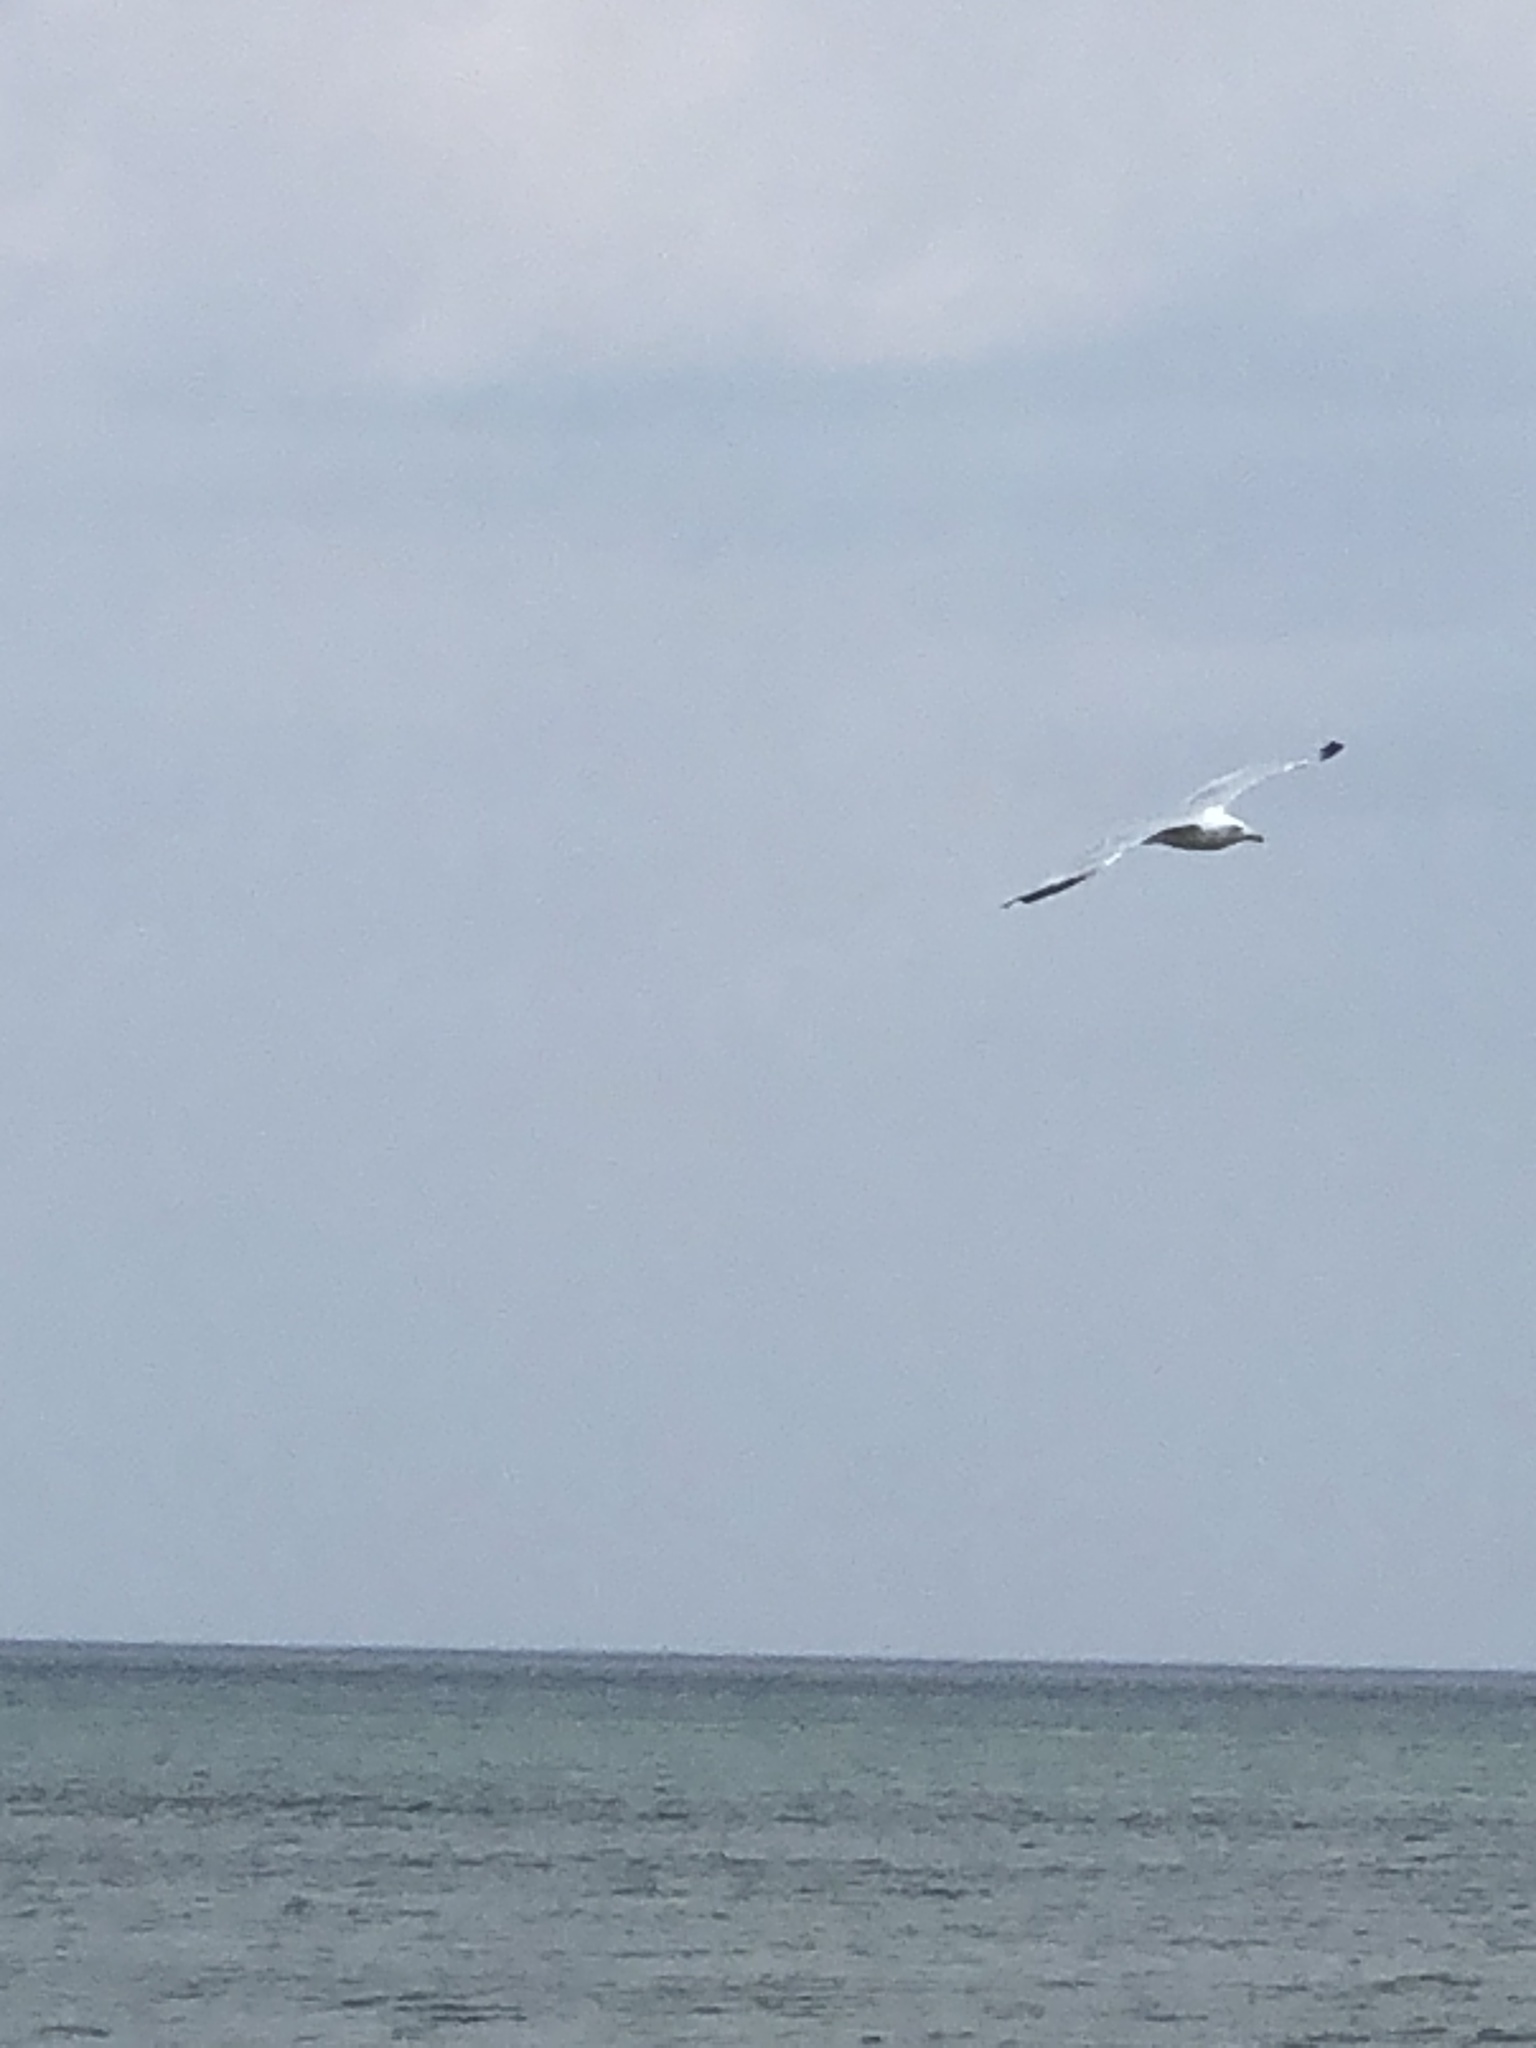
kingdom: Animalia
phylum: Chordata
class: Aves
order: Charadriiformes
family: Laridae
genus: Larus
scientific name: Larus delawarensis
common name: Ring-billed gull
